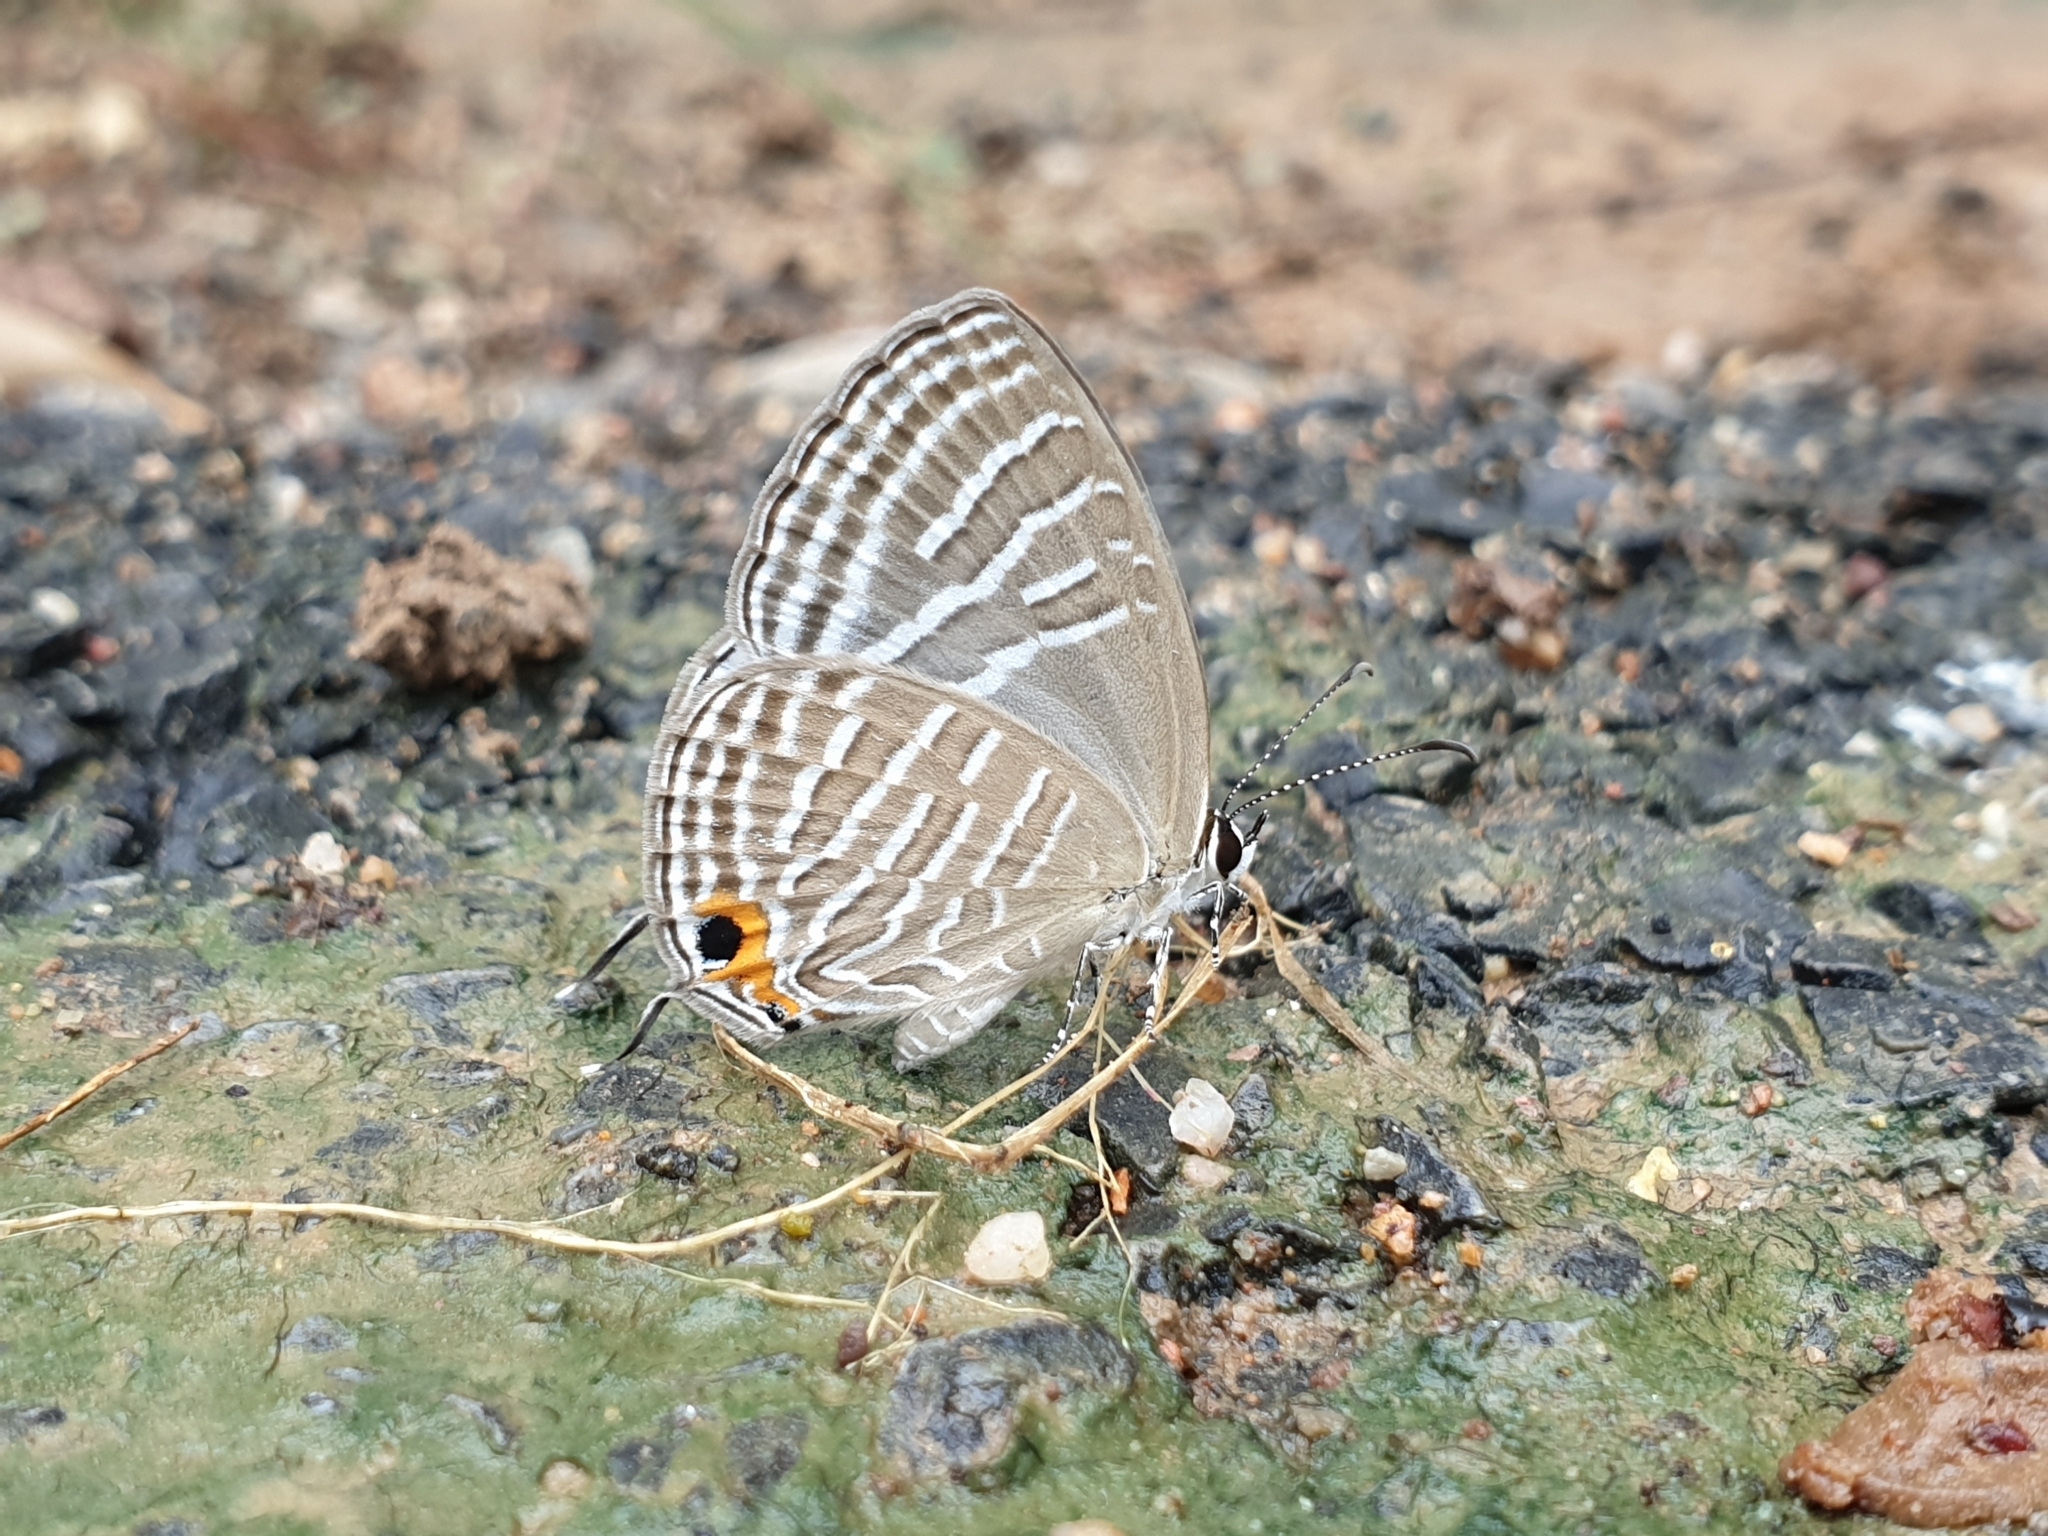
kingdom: Animalia
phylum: Arthropoda
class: Insecta
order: Lepidoptera
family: Lycaenidae
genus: Jamides
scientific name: Jamides celeno
